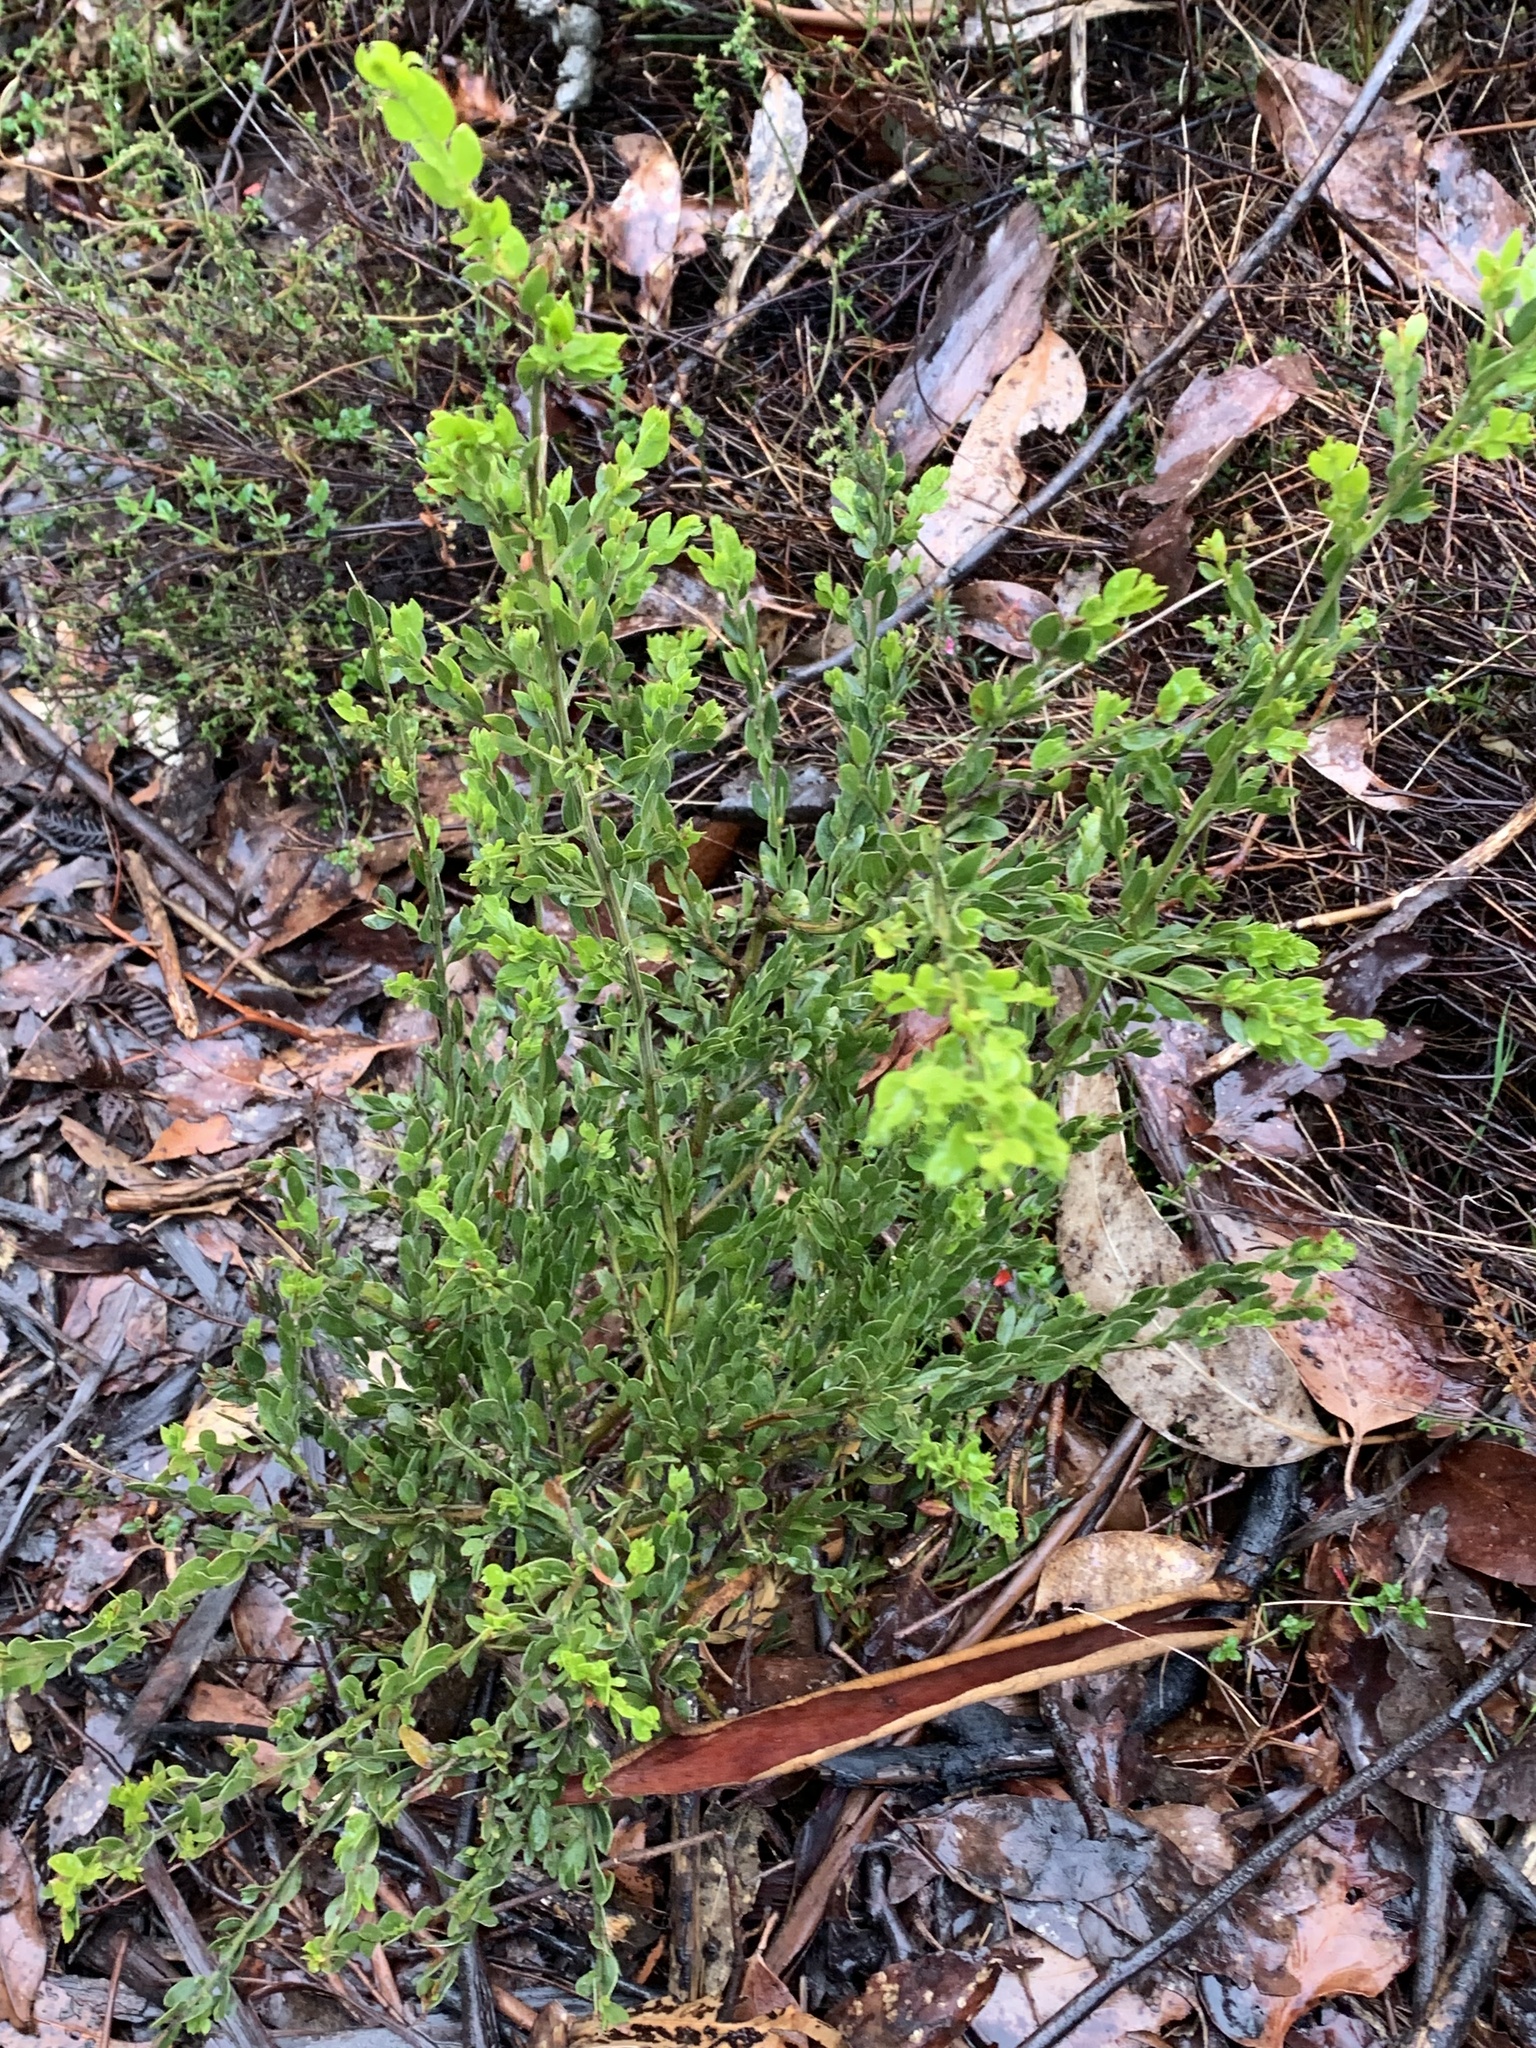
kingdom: Plantae
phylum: Tracheophyta
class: Magnoliopsida
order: Fabales
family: Fabaceae
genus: Acacia
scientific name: Acacia howittii
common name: Sticky wattle
